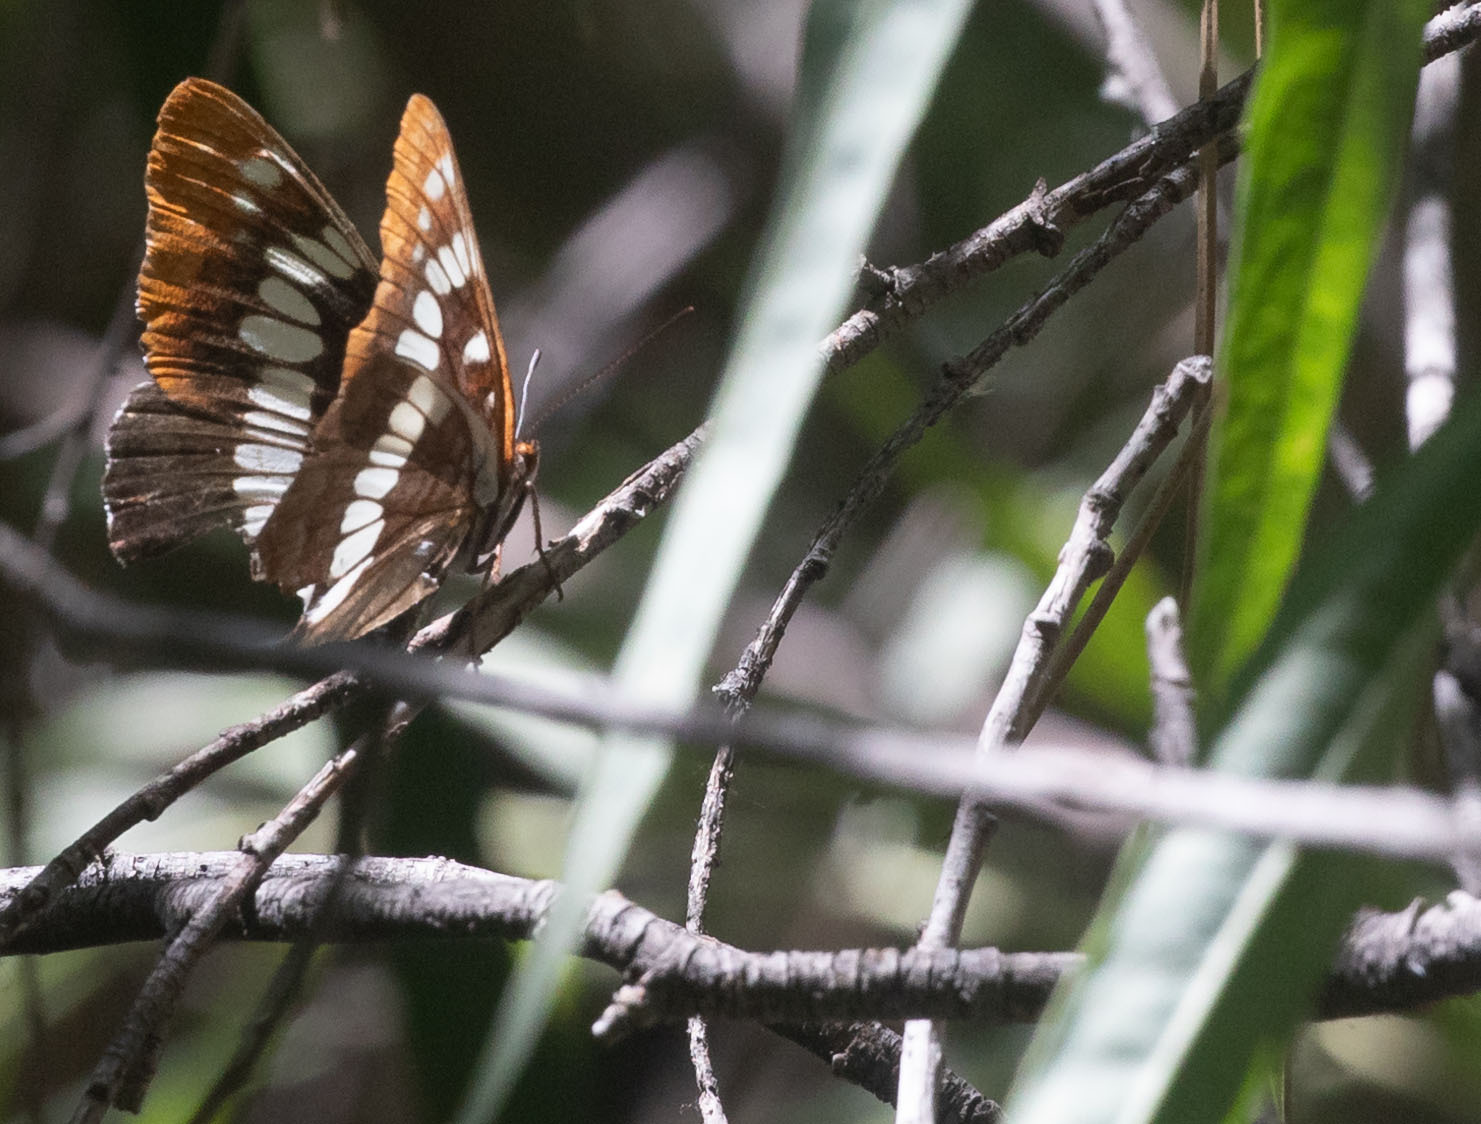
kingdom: Animalia
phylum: Arthropoda
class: Insecta
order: Lepidoptera
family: Nymphalidae
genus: Limenitis
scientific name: Limenitis lorquini
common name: Lorquin's admiral
